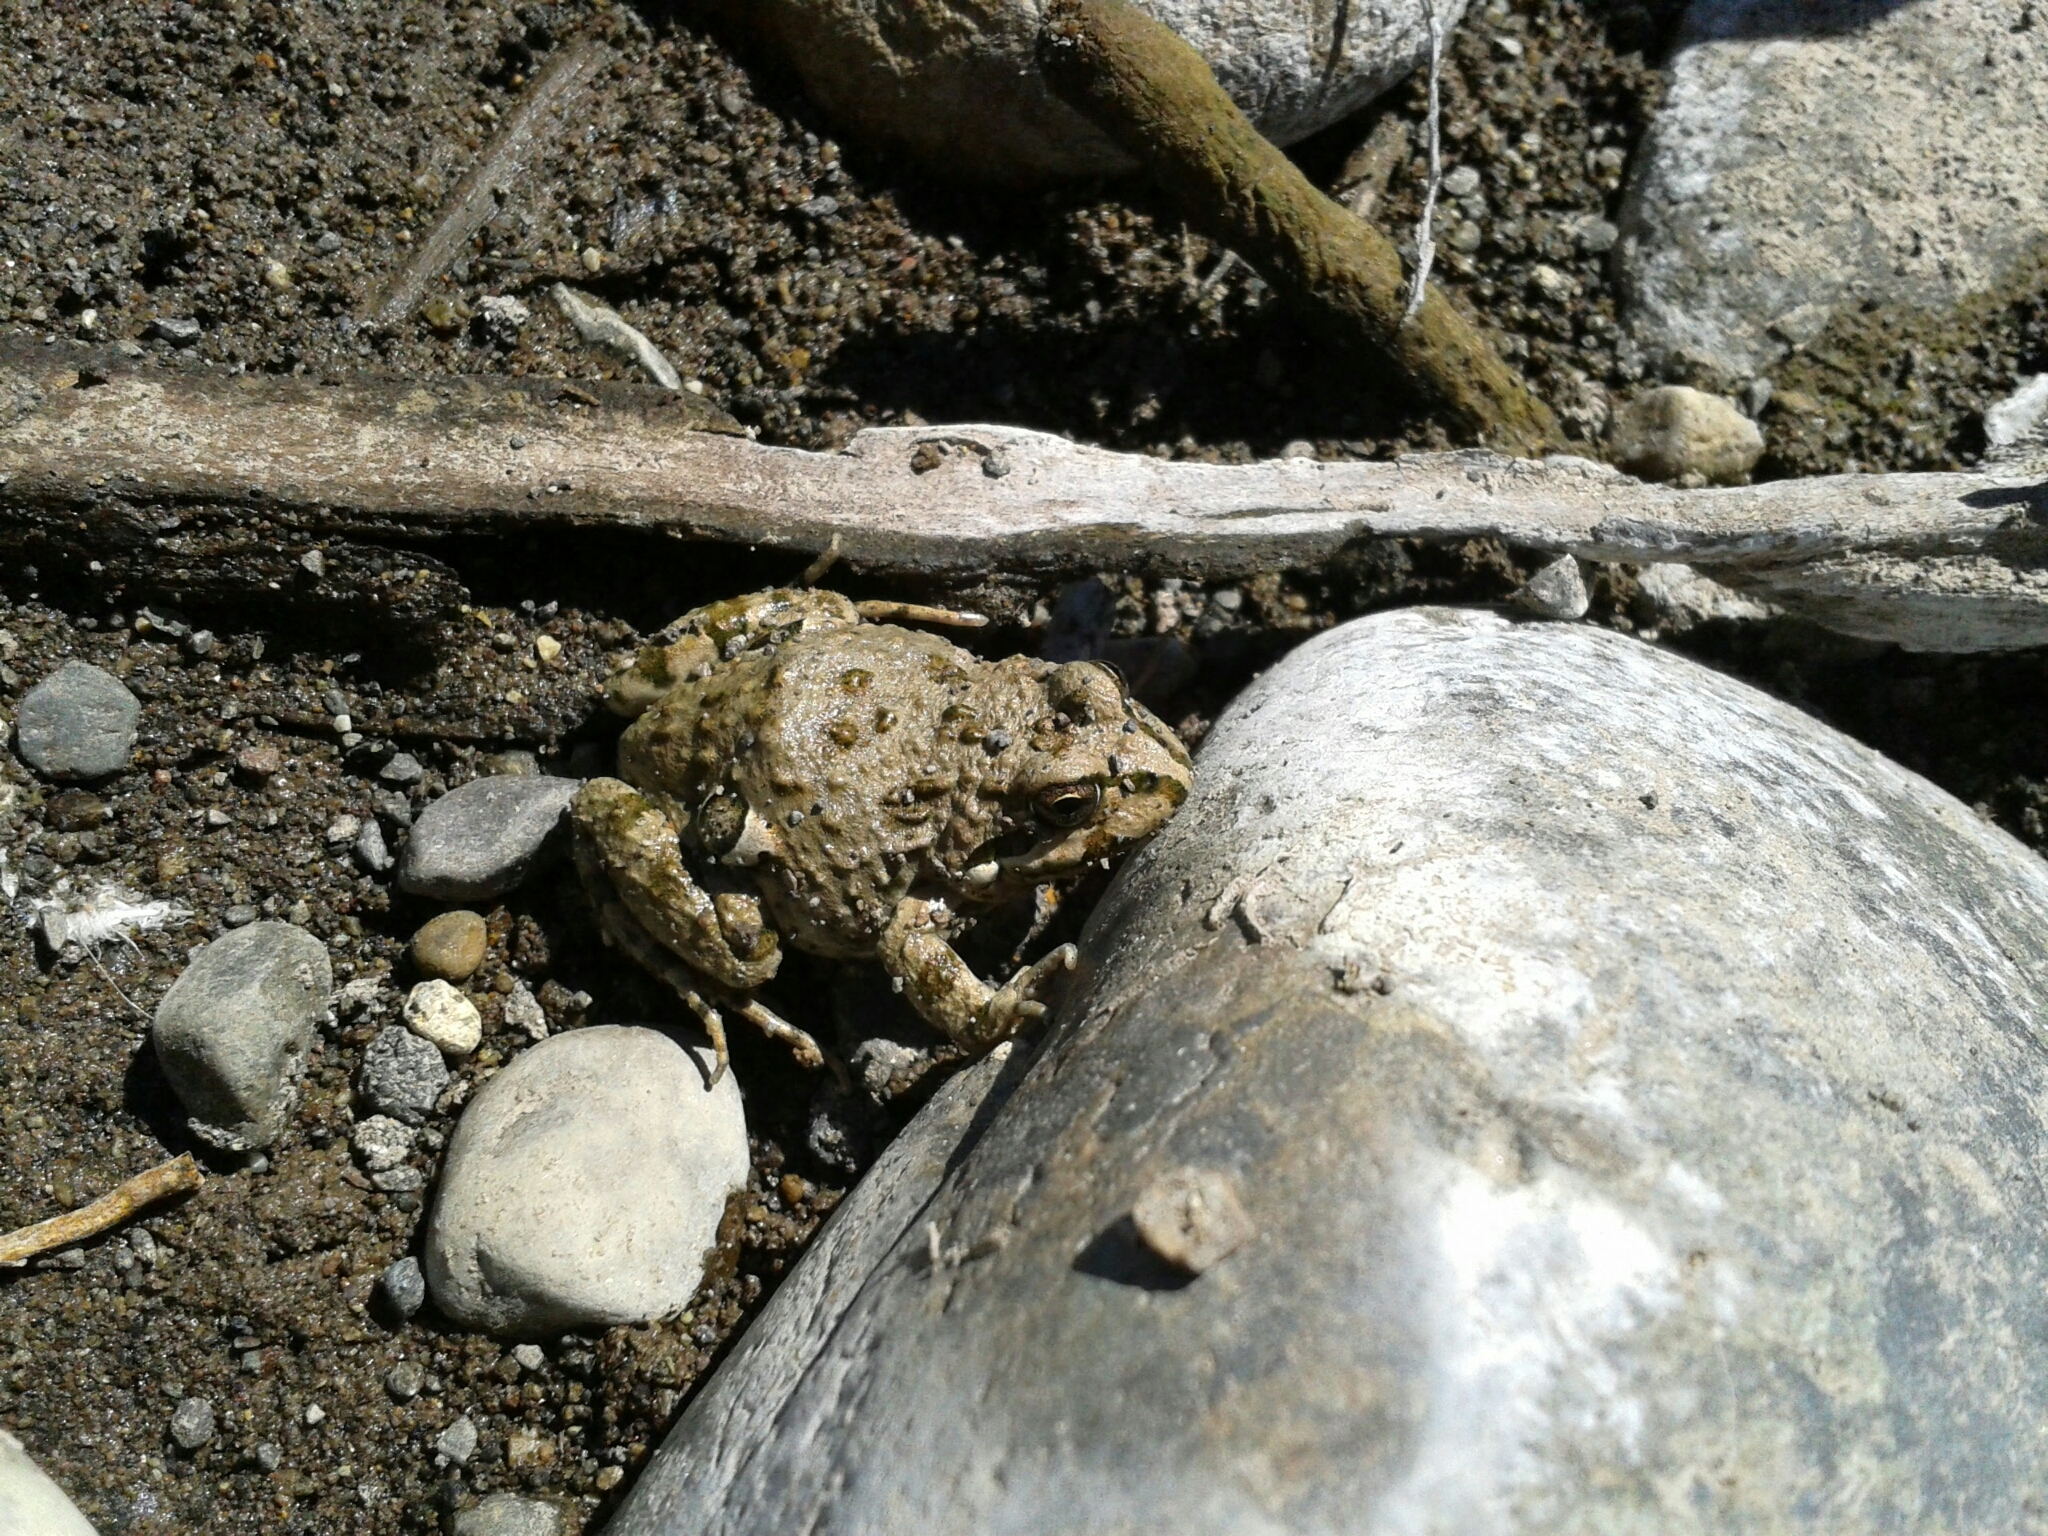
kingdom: Animalia
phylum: Chordata
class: Amphibia
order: Anura
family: Leptodactylidae
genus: Pleurodema
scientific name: Pleurodema thaul
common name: Chile four-eyed frog
